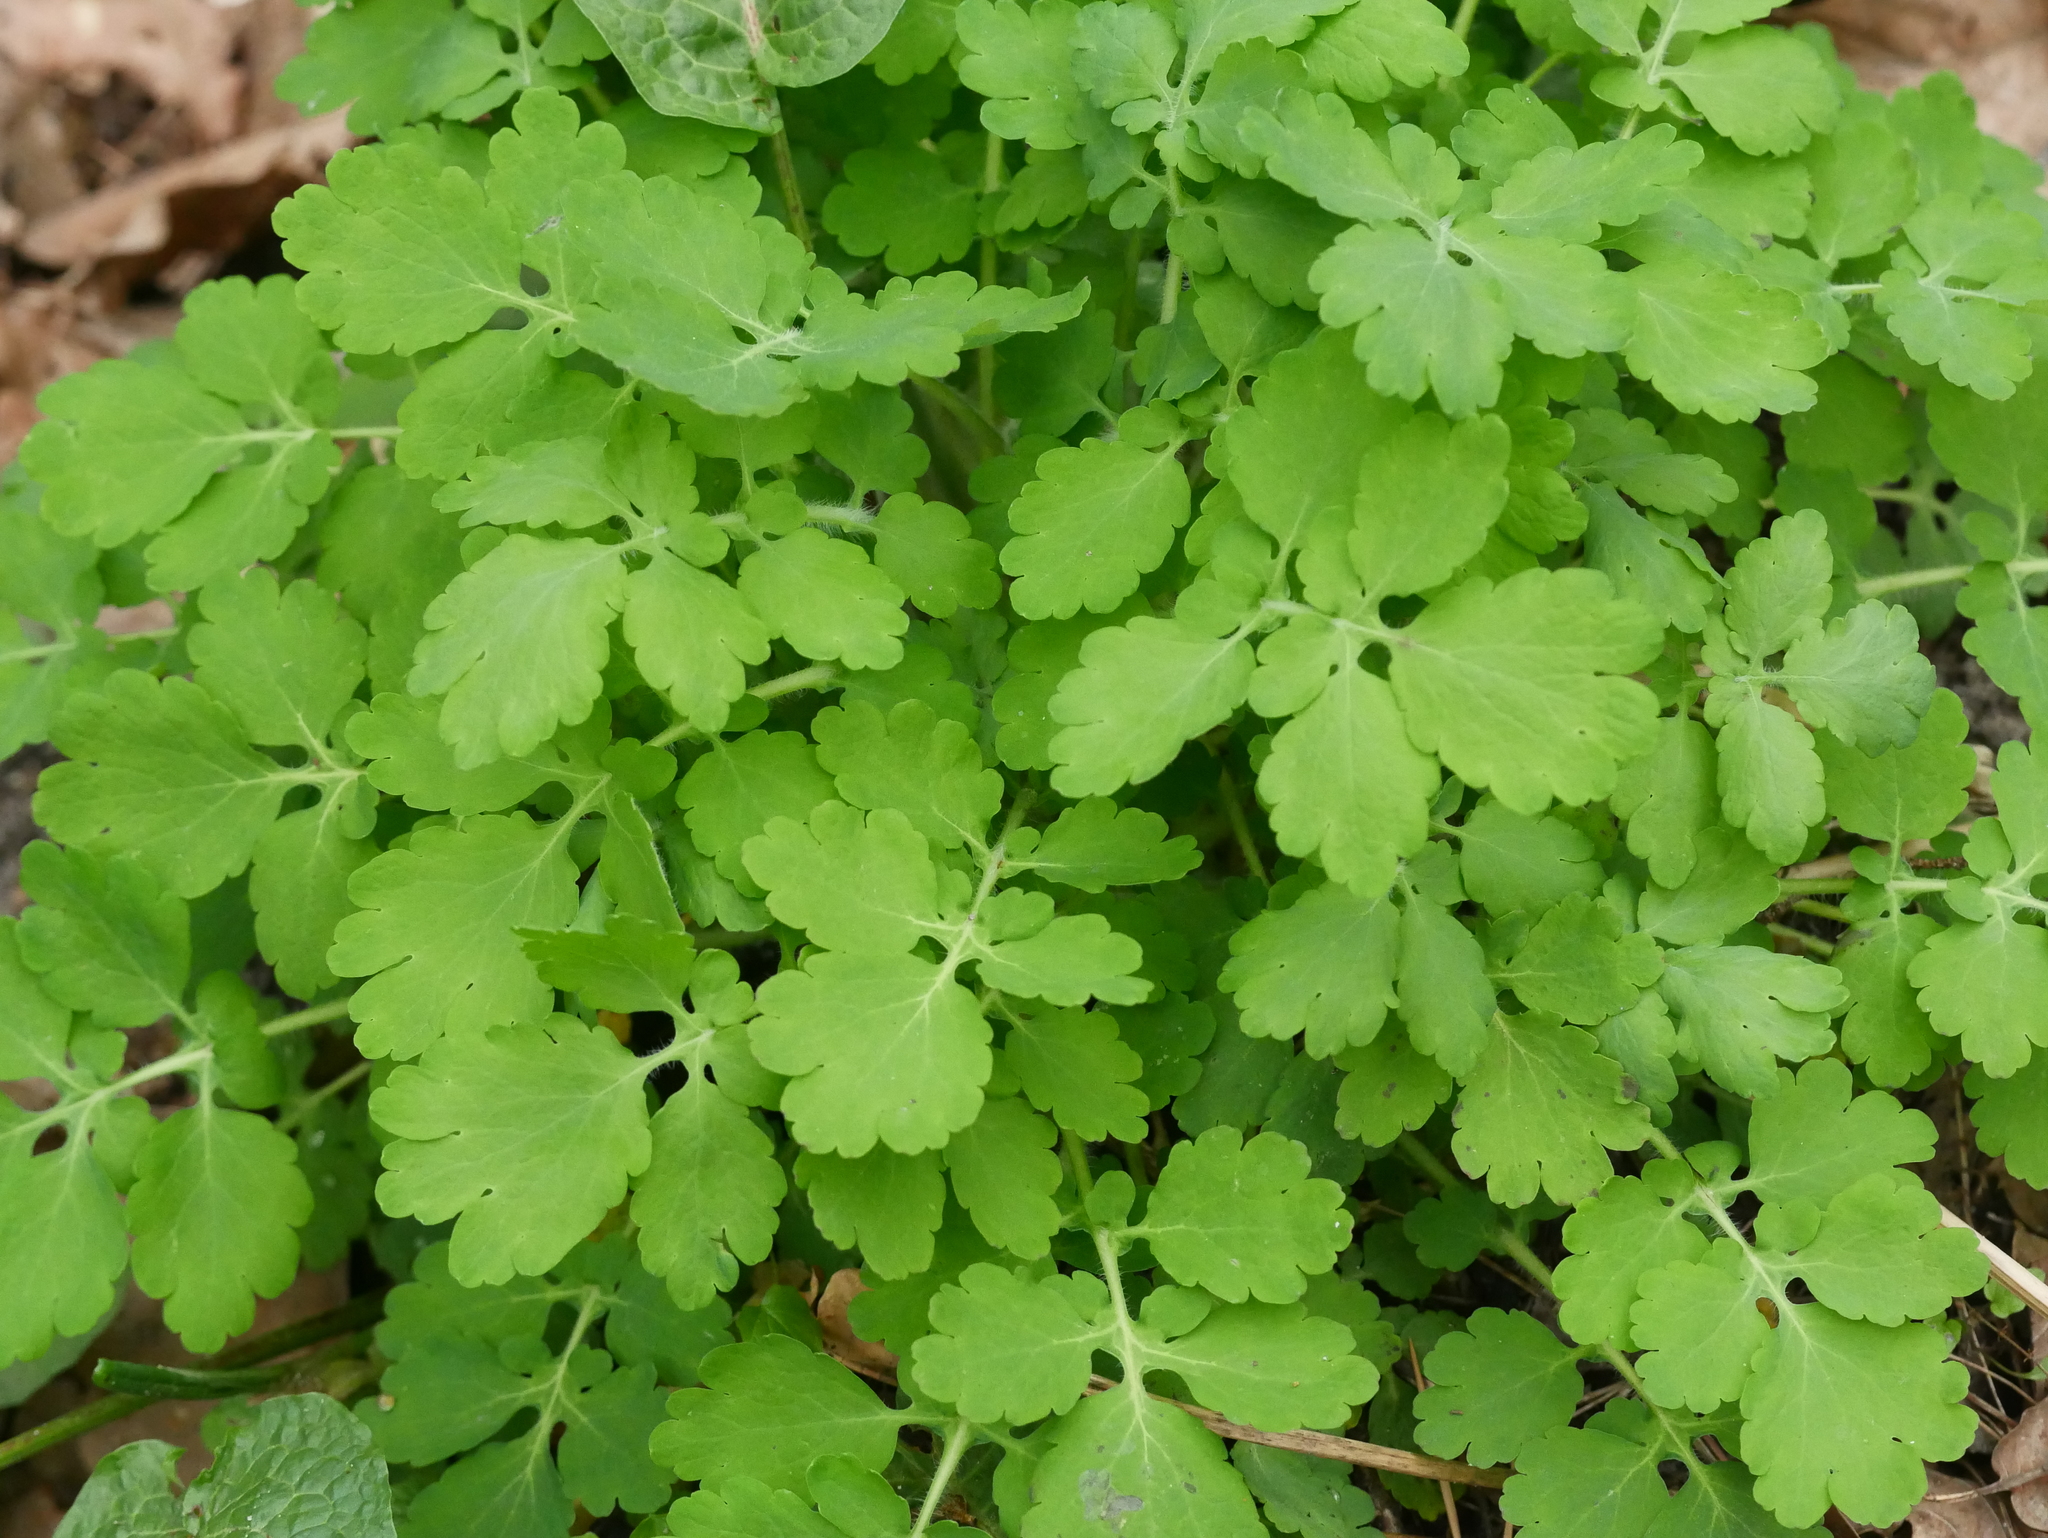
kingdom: Plantae
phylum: Tracheophyta
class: Magnoliopsida
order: Ranunculales
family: Papaveraceae
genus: Chelidonium
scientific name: Chelidonium majus
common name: Greater celandine
